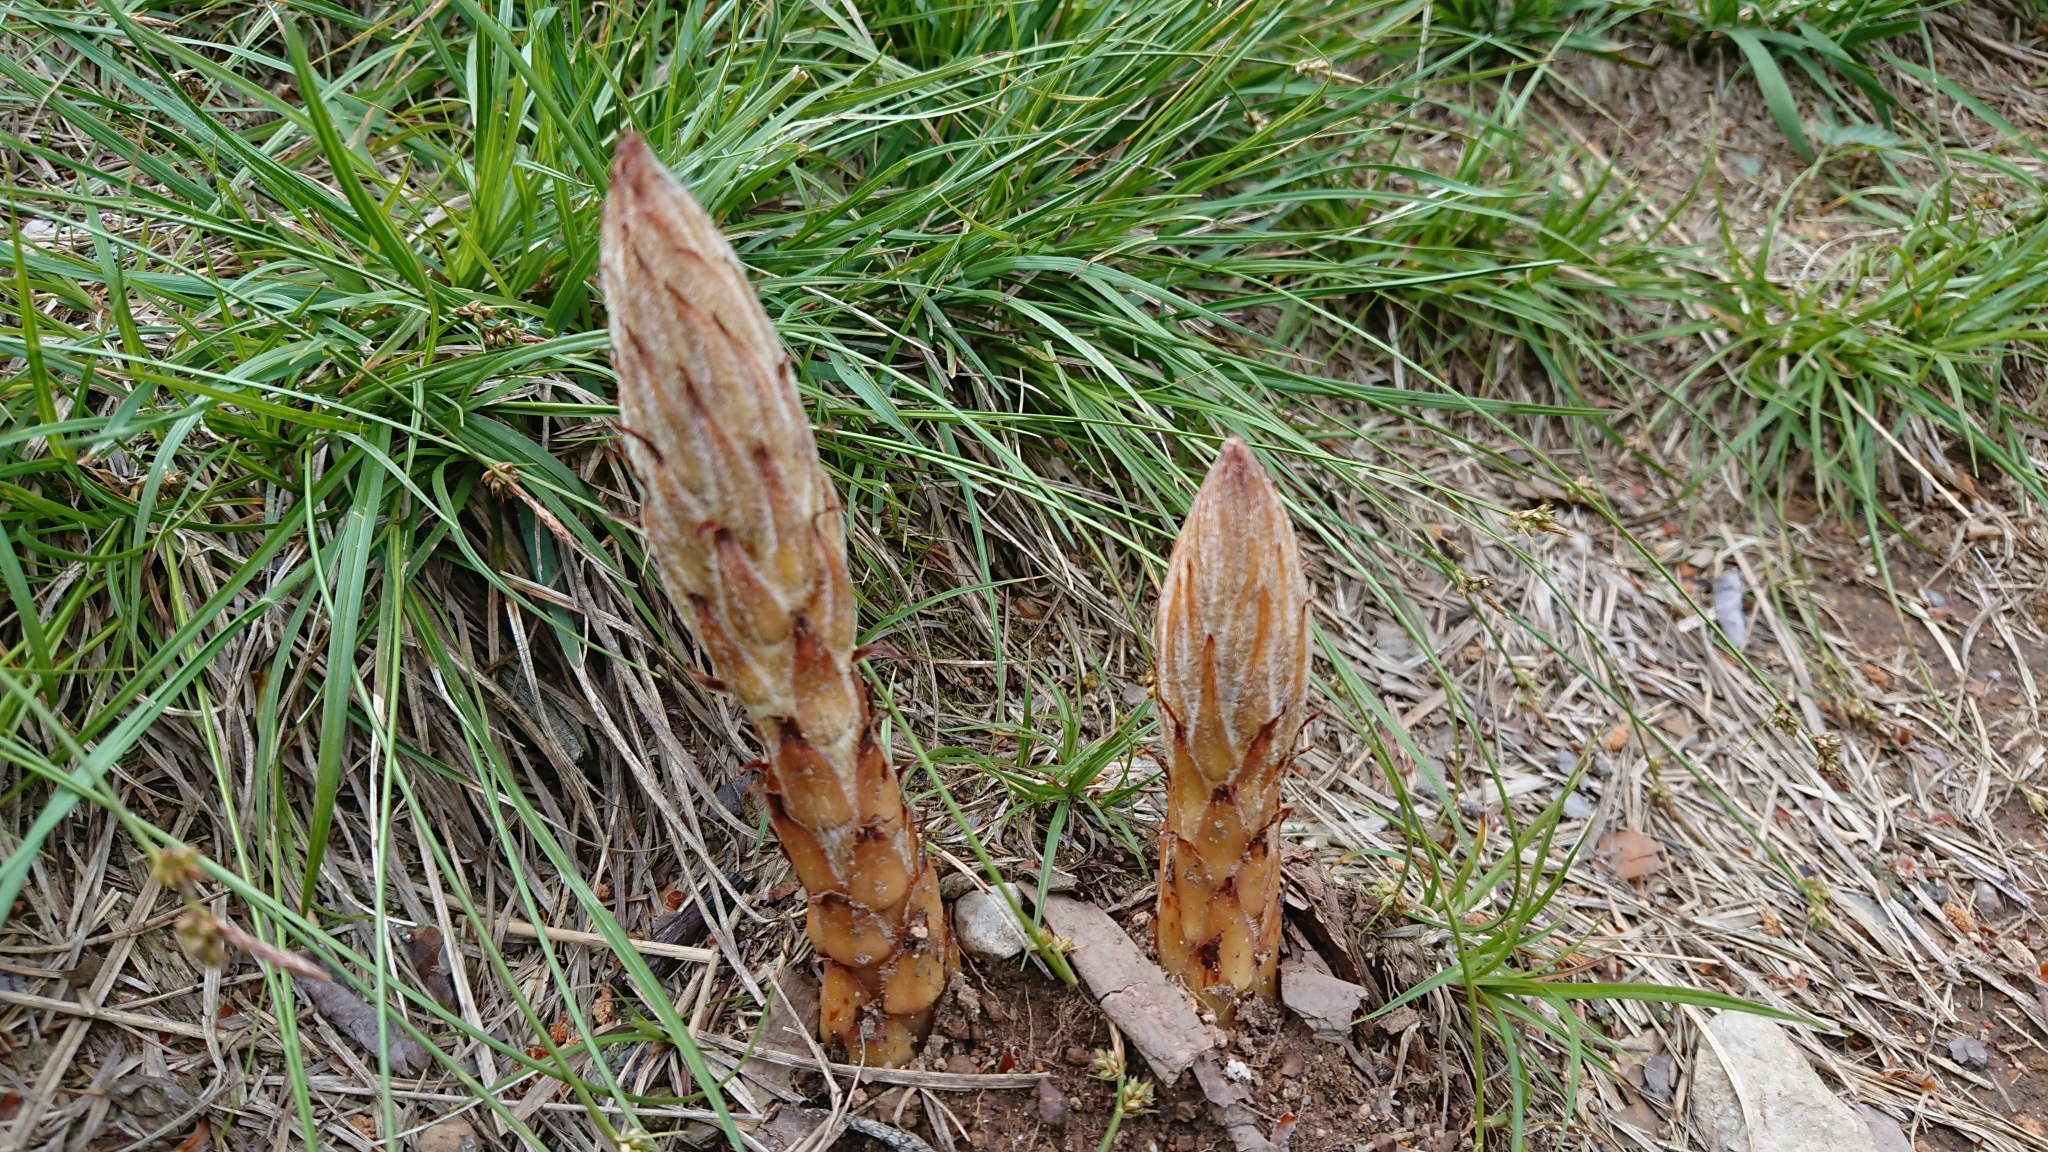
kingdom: Plantae
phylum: Tracheophyta
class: Magnoliopsida
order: Lamiales
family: Orobanchaceae
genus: Orobanche
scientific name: Orobanche rapum-genistae
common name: Greater broomrape
